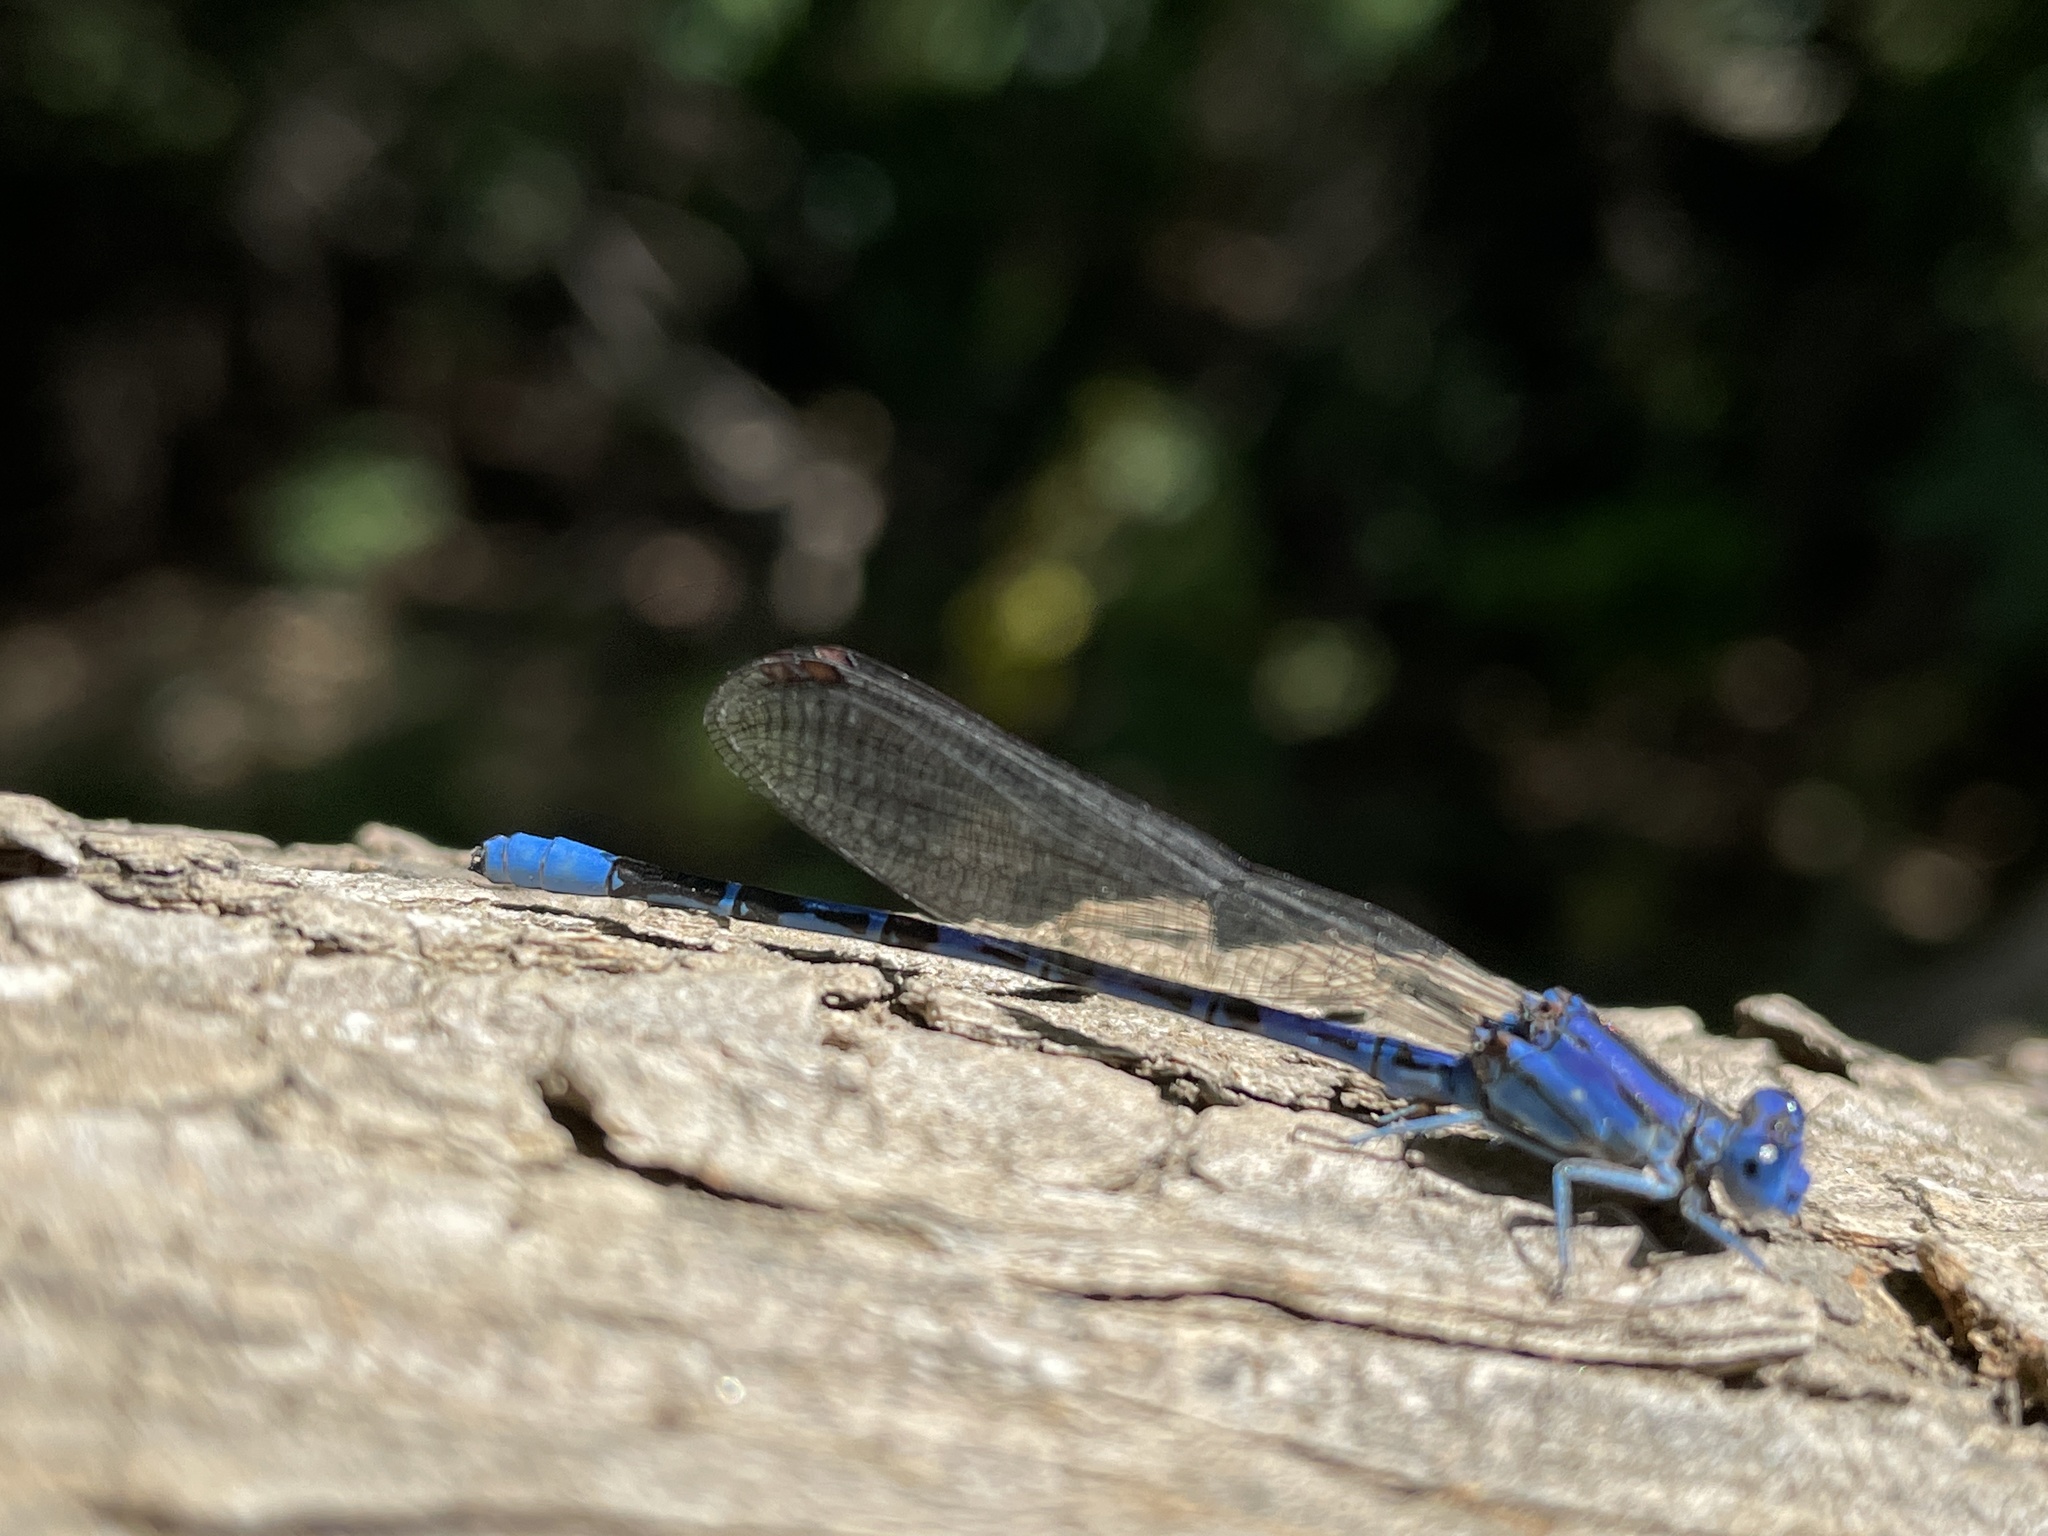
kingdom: Animalia
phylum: Arthropoda
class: Insecta
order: Odonata
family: Coenagrionidae
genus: Argia
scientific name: Argia vivida
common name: Vivid dancer
